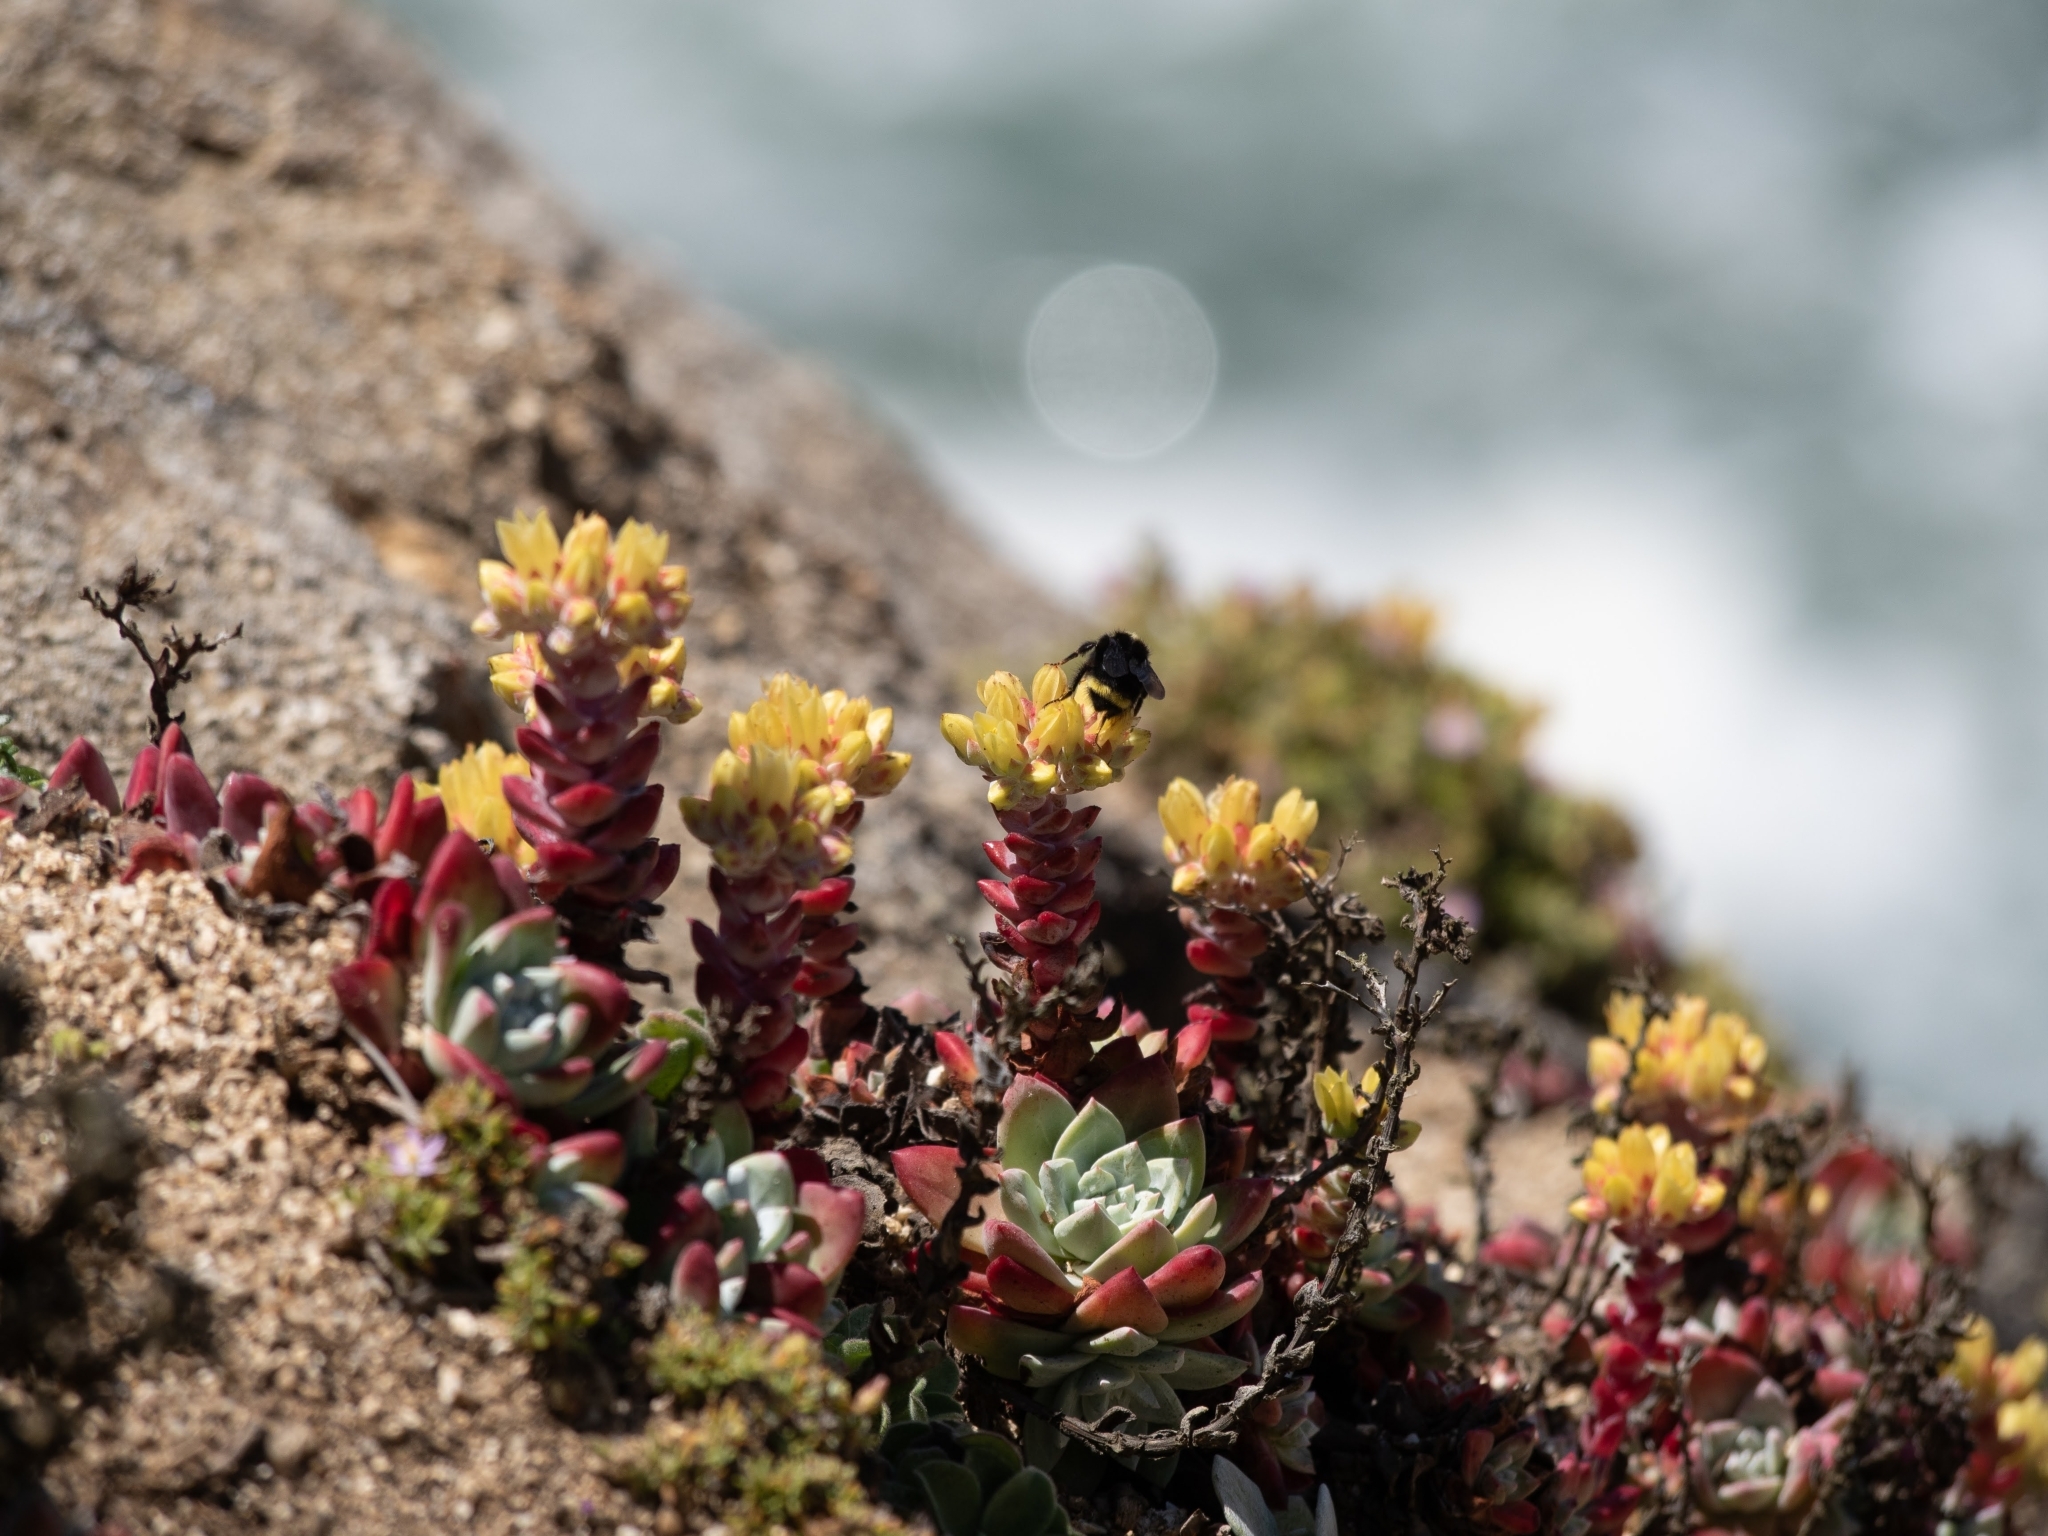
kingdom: Plantae
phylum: Tracheophyta
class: Magnoliopsida
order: Saxifragales
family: Crassulaceae
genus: Dudleya
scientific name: Dudleya farinosa
